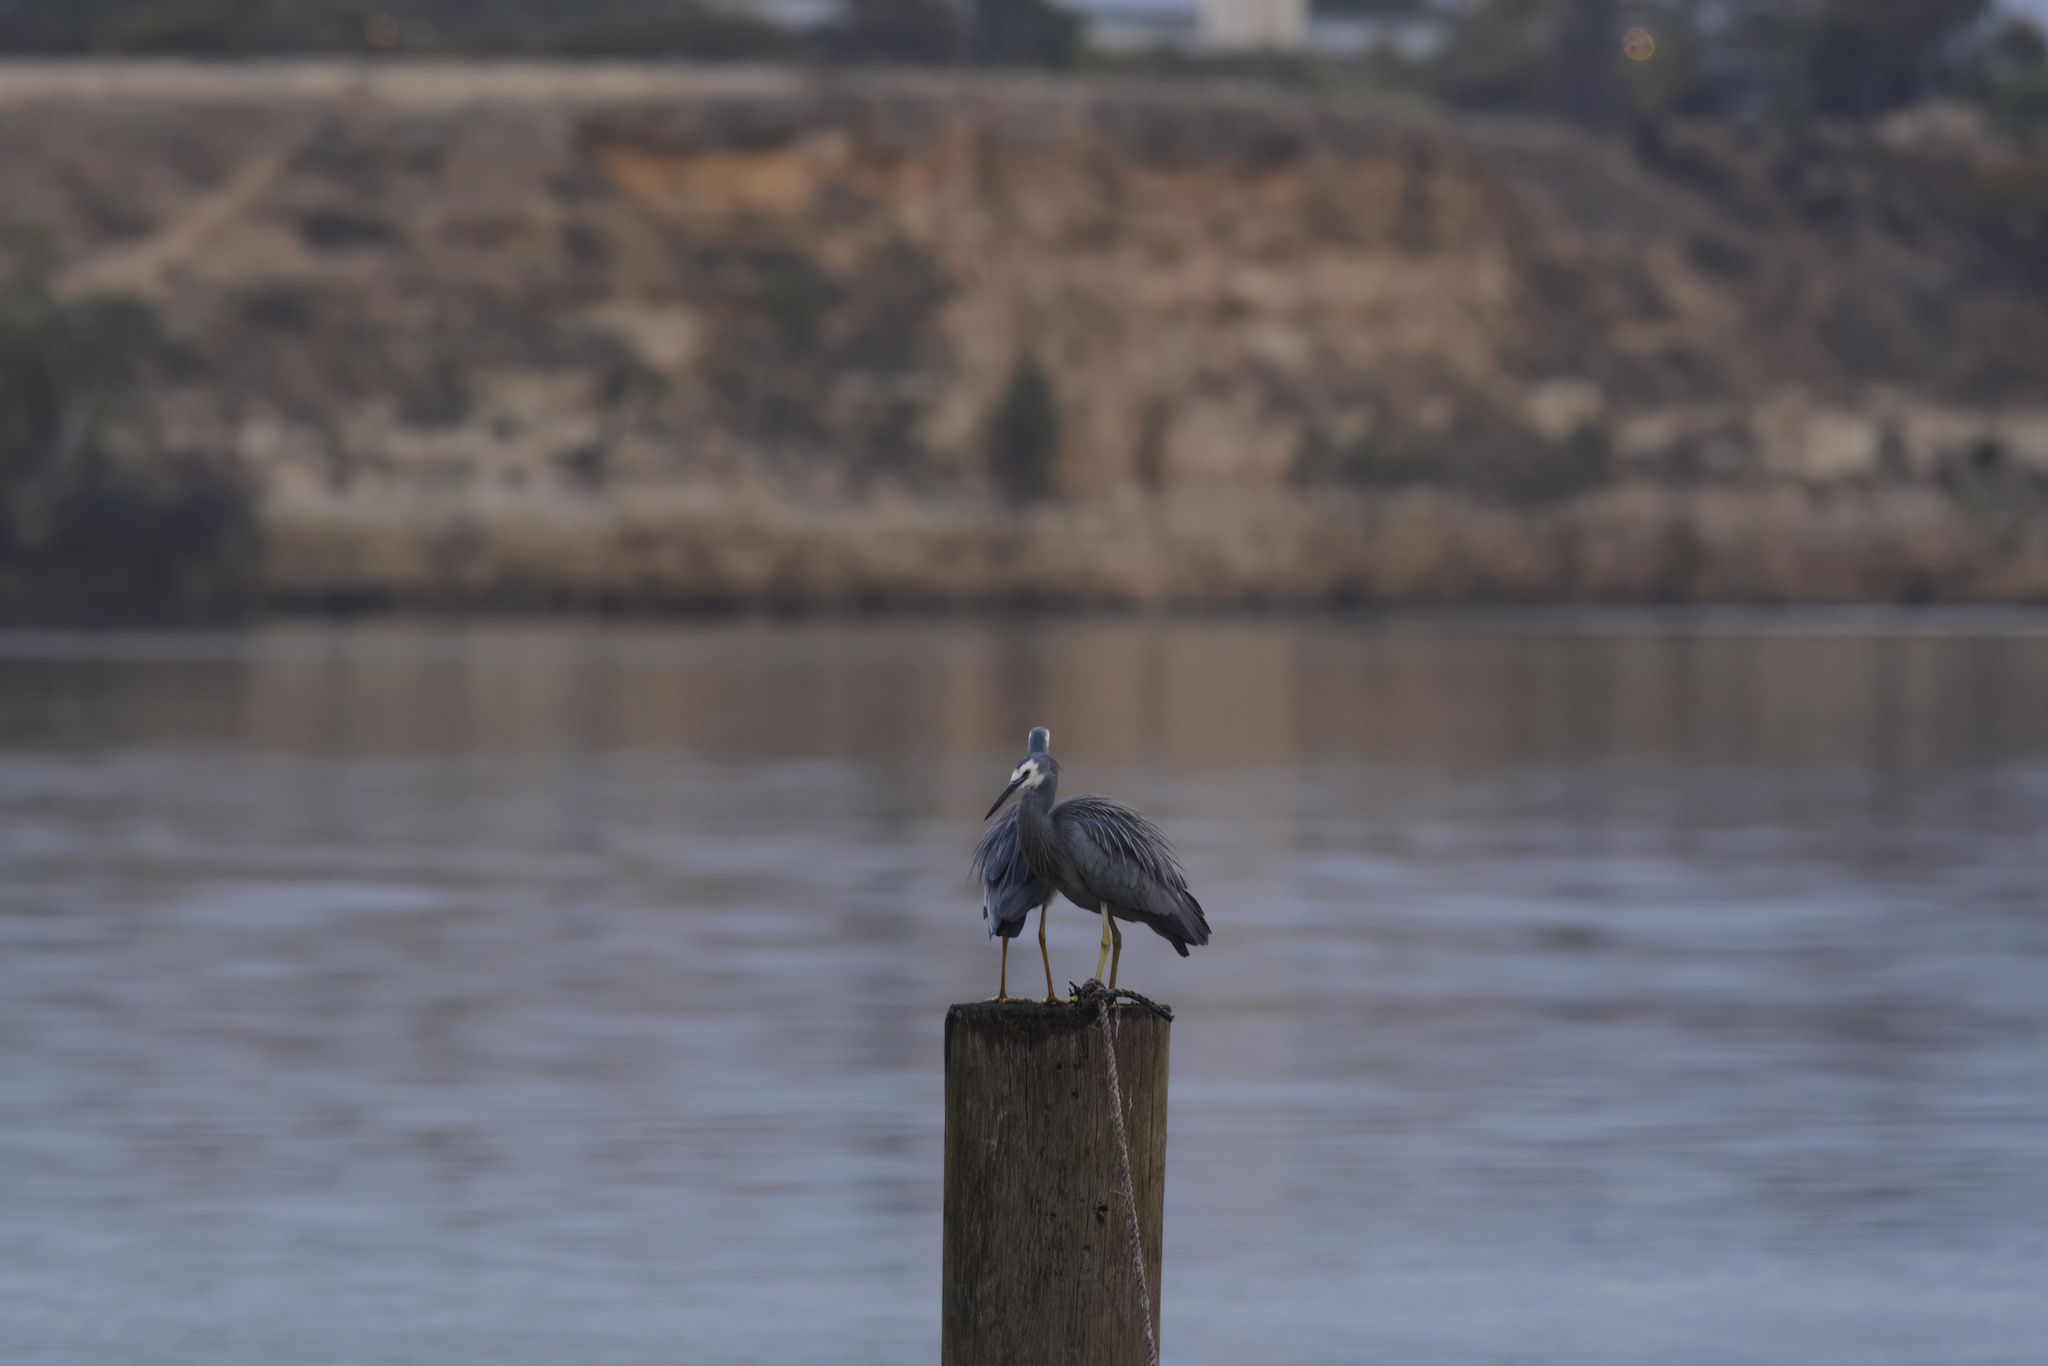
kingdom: Animalia
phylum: Chordata
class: Aves
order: Pelecaniformes
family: Ardeidae
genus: Egretta
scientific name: Egretta novaehollandiae
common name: White-faced heron
